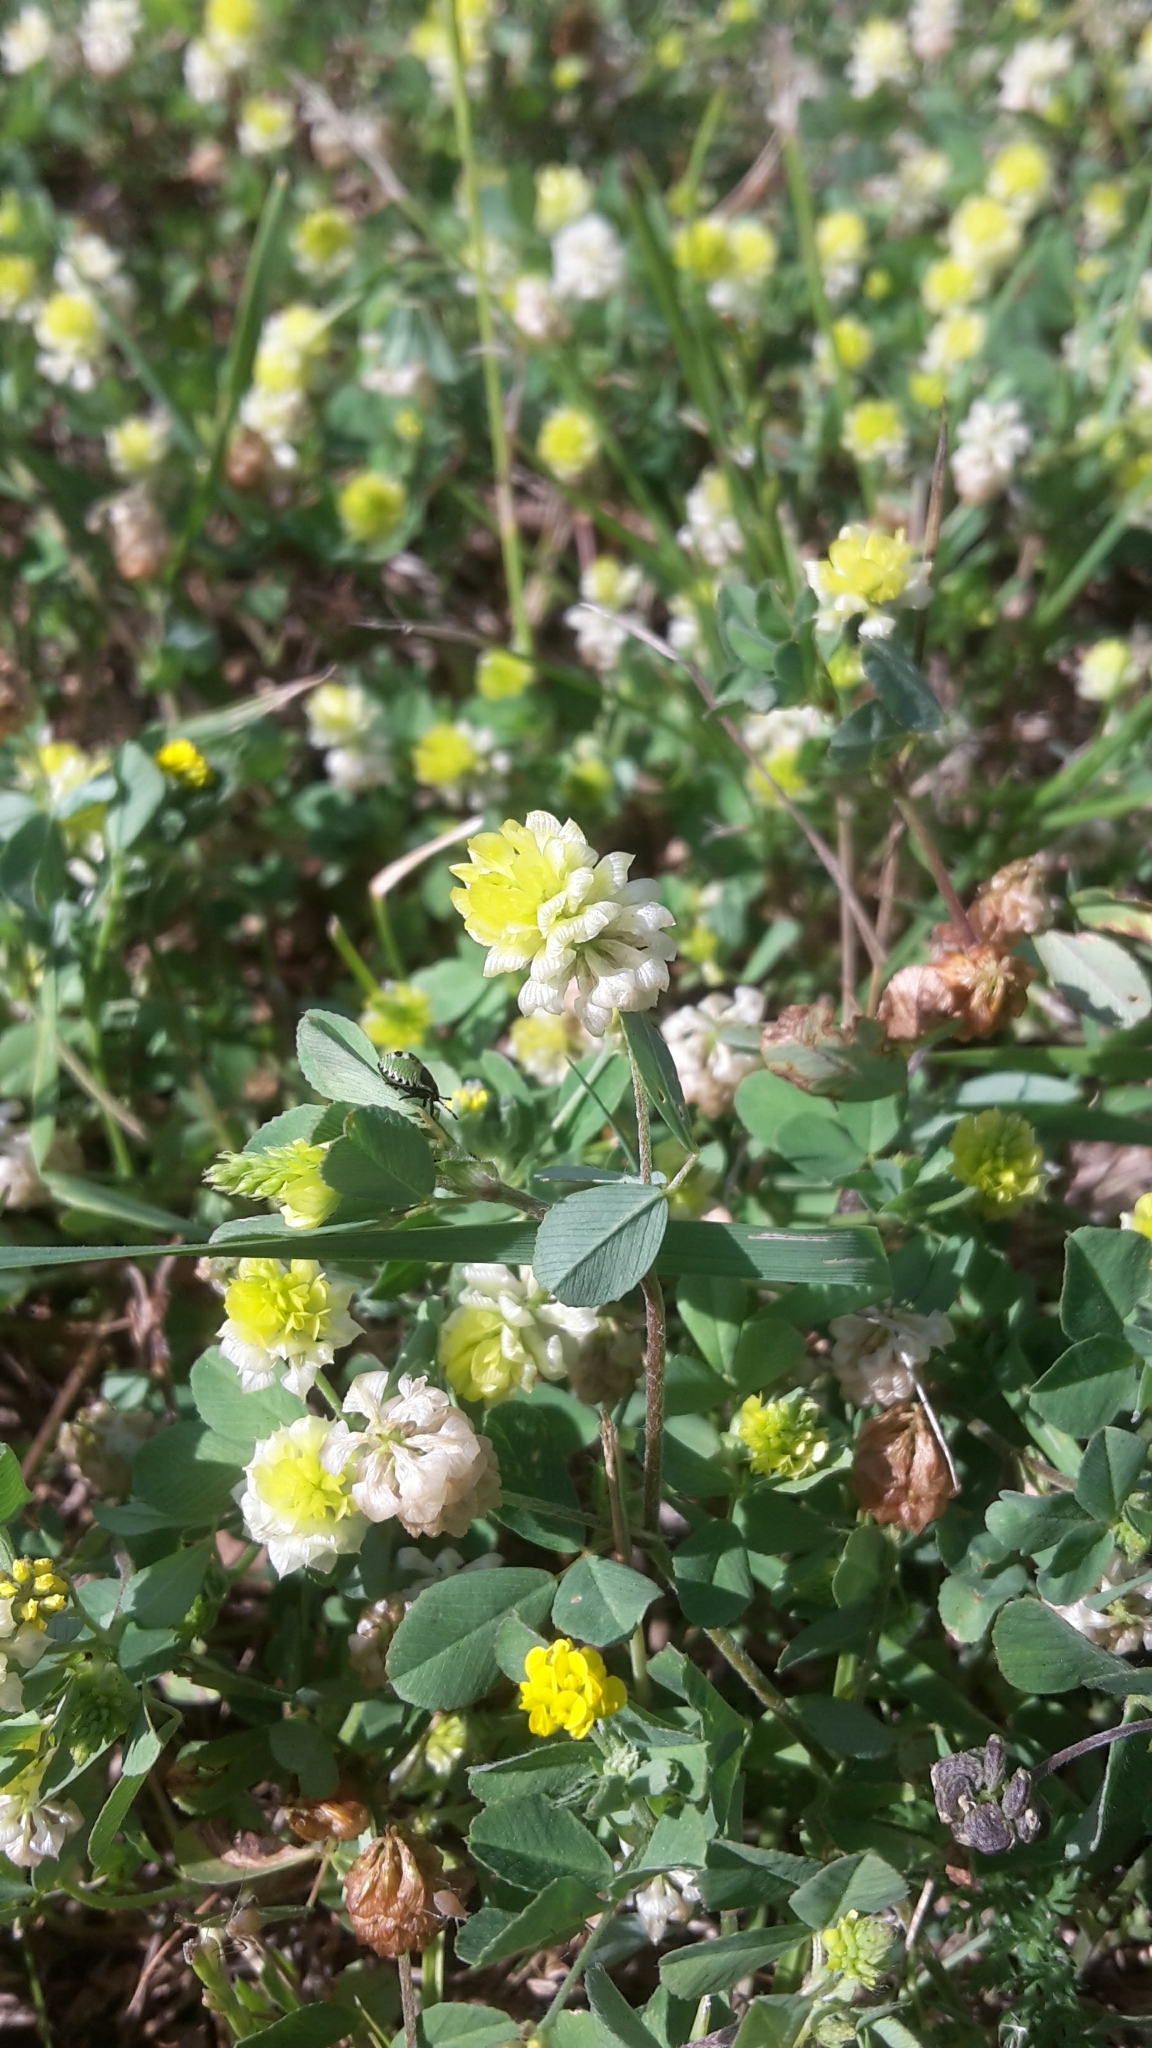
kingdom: Plantae
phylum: Tracheophyta
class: Magnoliopsida
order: Fabales
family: Fabaceae
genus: Trifolium
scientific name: Trifolium campestre
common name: Field clover
